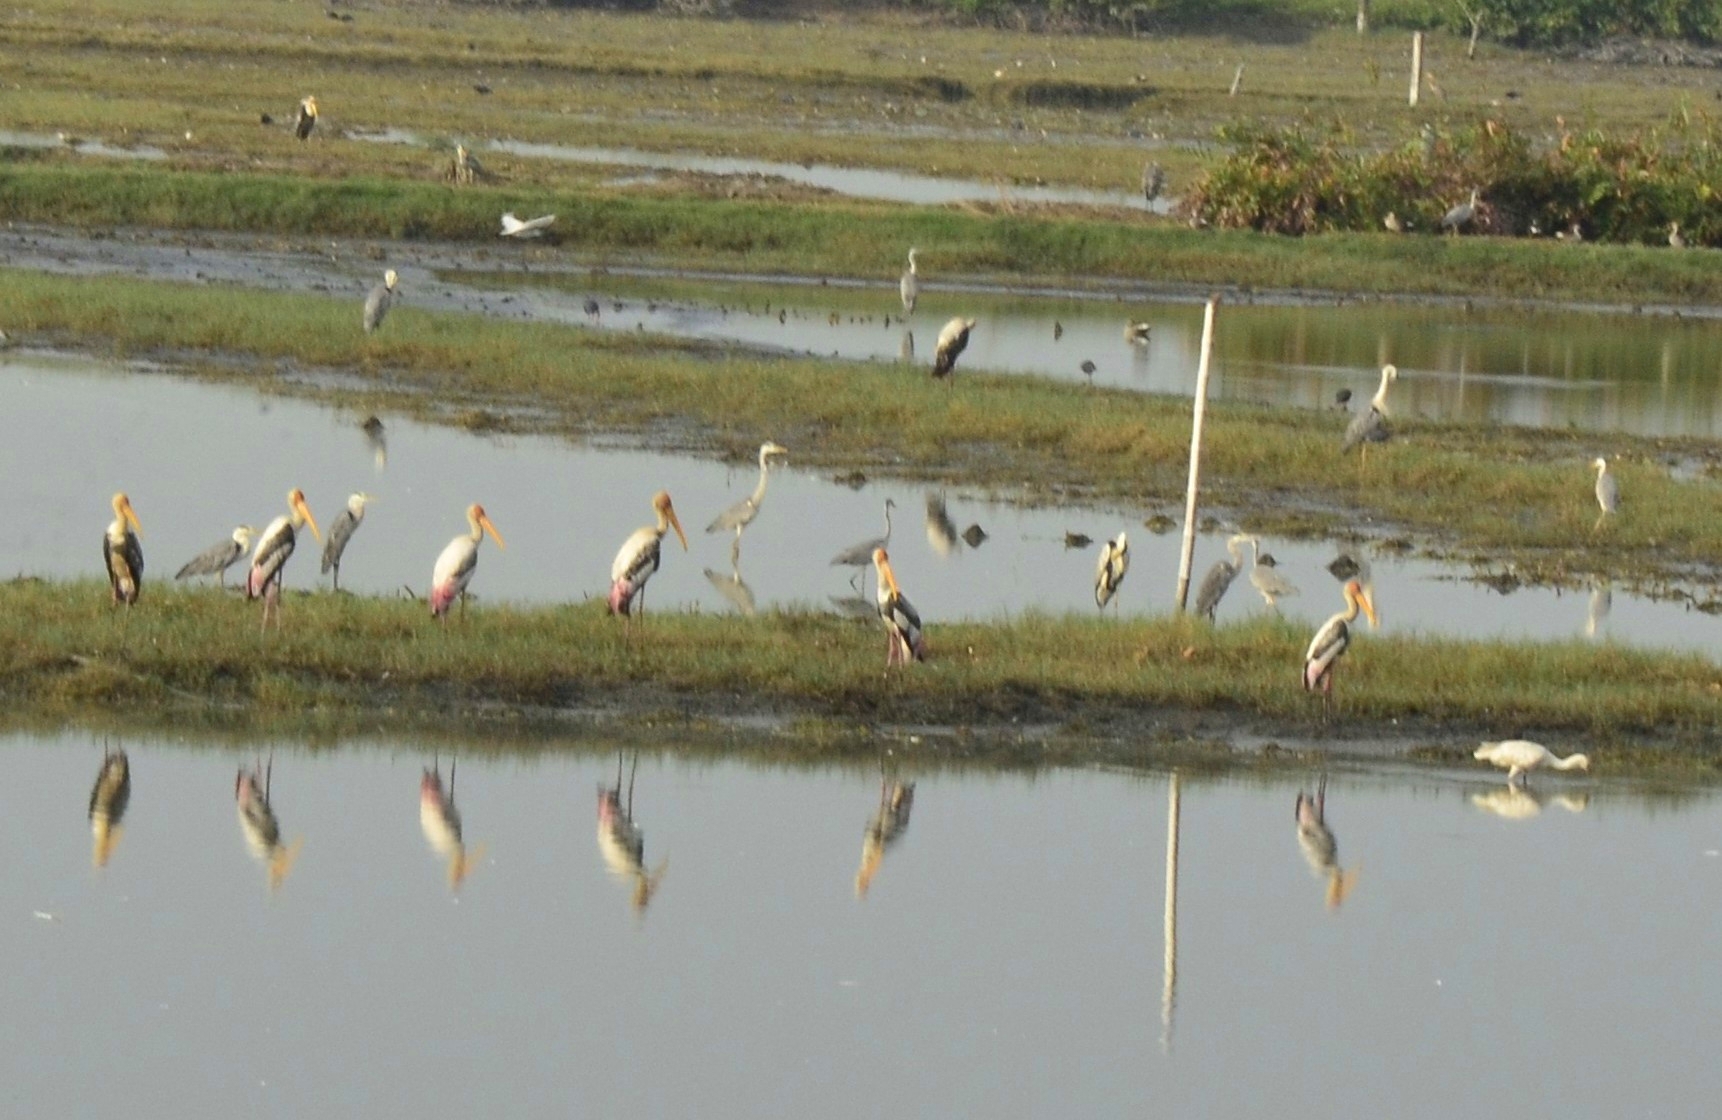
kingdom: Animalia
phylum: Chordata
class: Aves
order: Ciconiiformes
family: Ciconiidae
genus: Mycteria
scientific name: Mycteria leucocephala
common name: Painted stork
